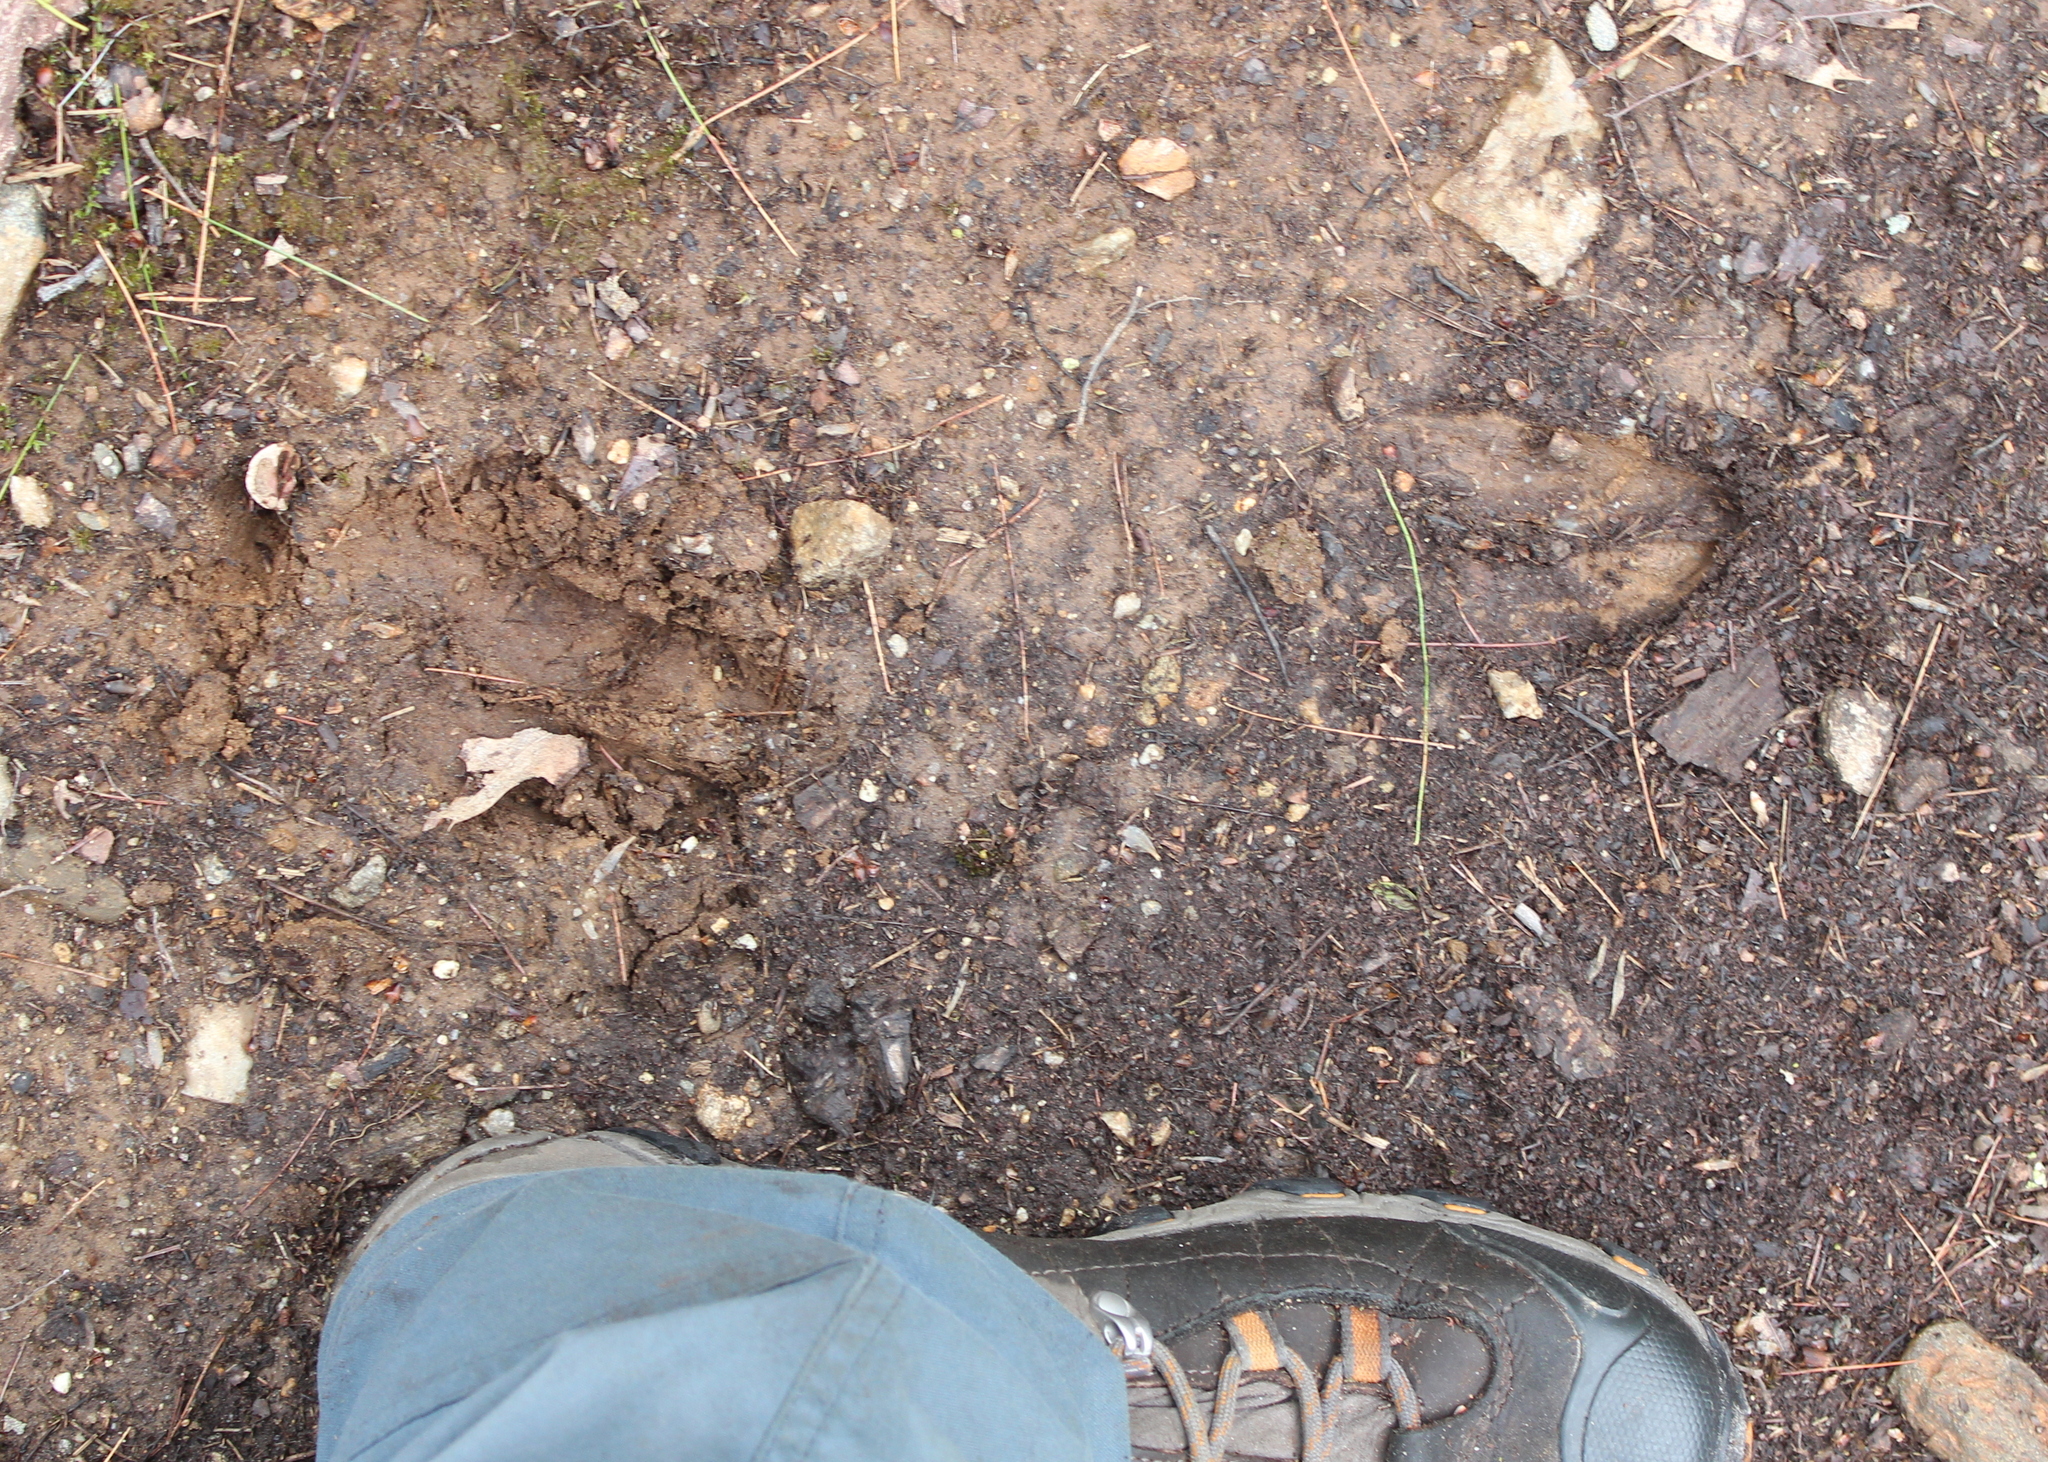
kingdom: Animalia
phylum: Chordata
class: Mammalia
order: Artiodactyla
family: Cervidae
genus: Odocoileus
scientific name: Odocoileus virginianus
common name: White-tailed deer
